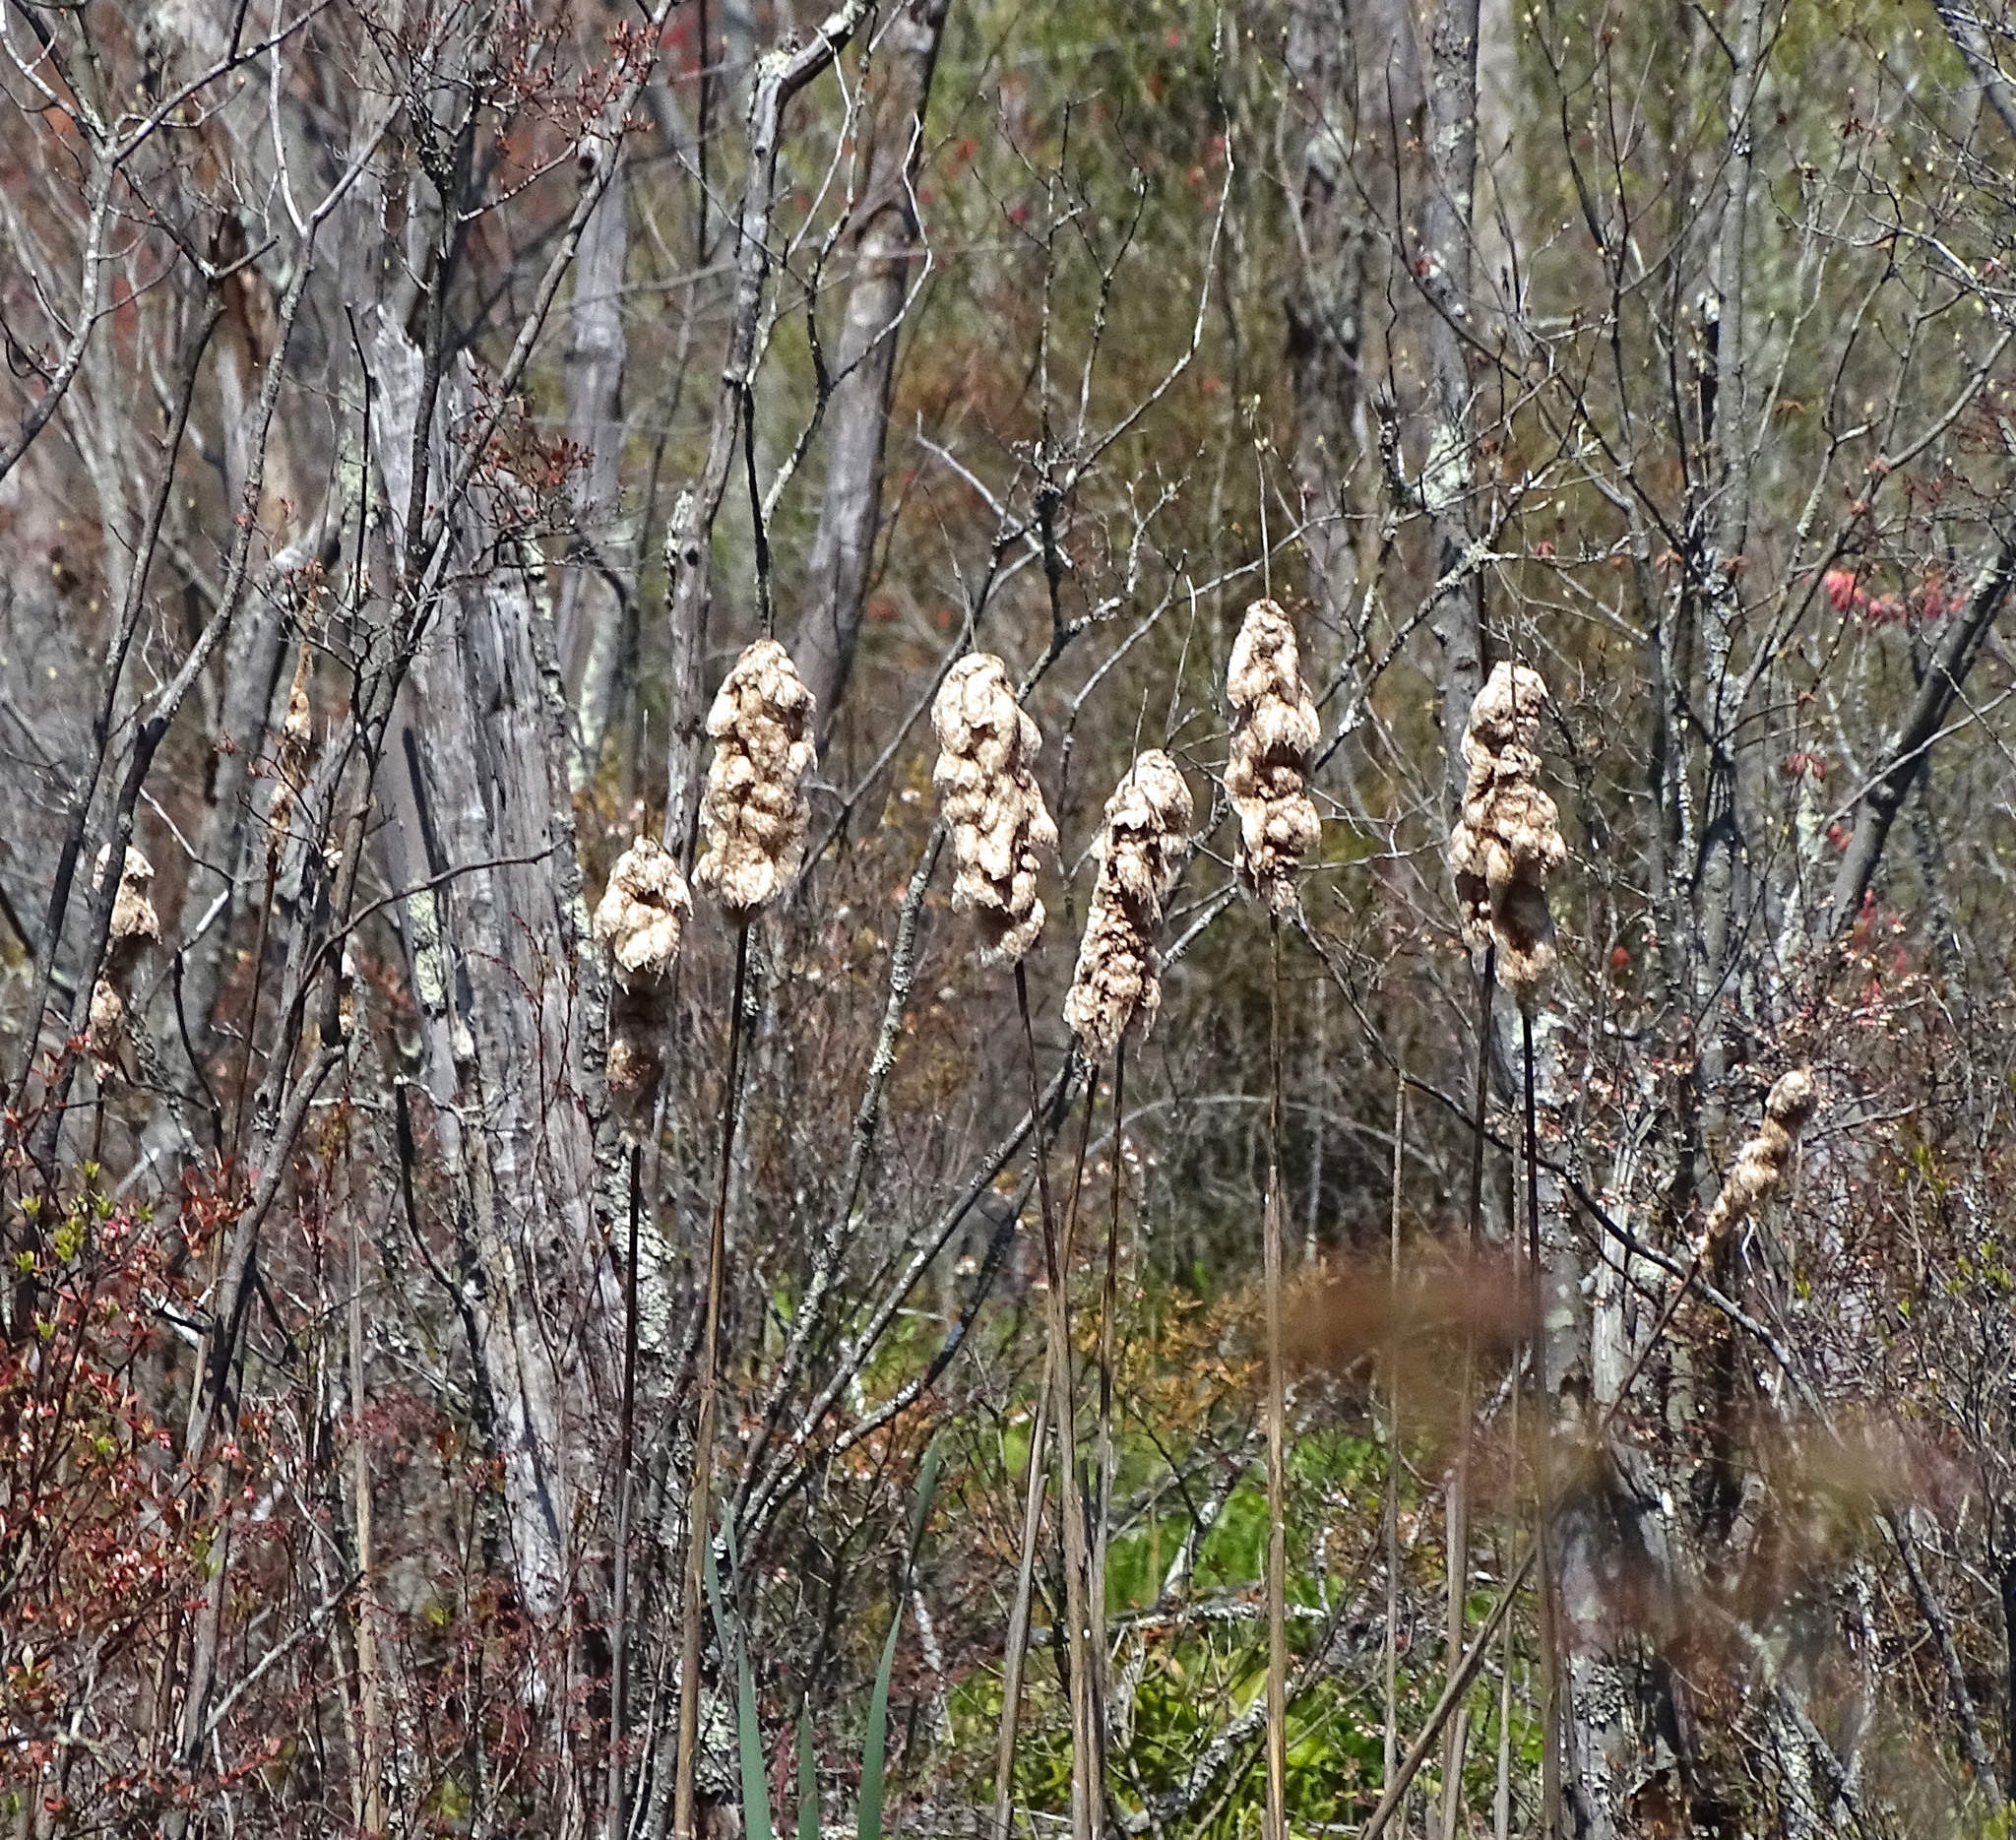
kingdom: Plantae
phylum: Tracheophyta
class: Liliopsida
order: Poales
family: Typhaceae
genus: Typha
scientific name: Typha latifolia
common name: Broadleaf cattail
